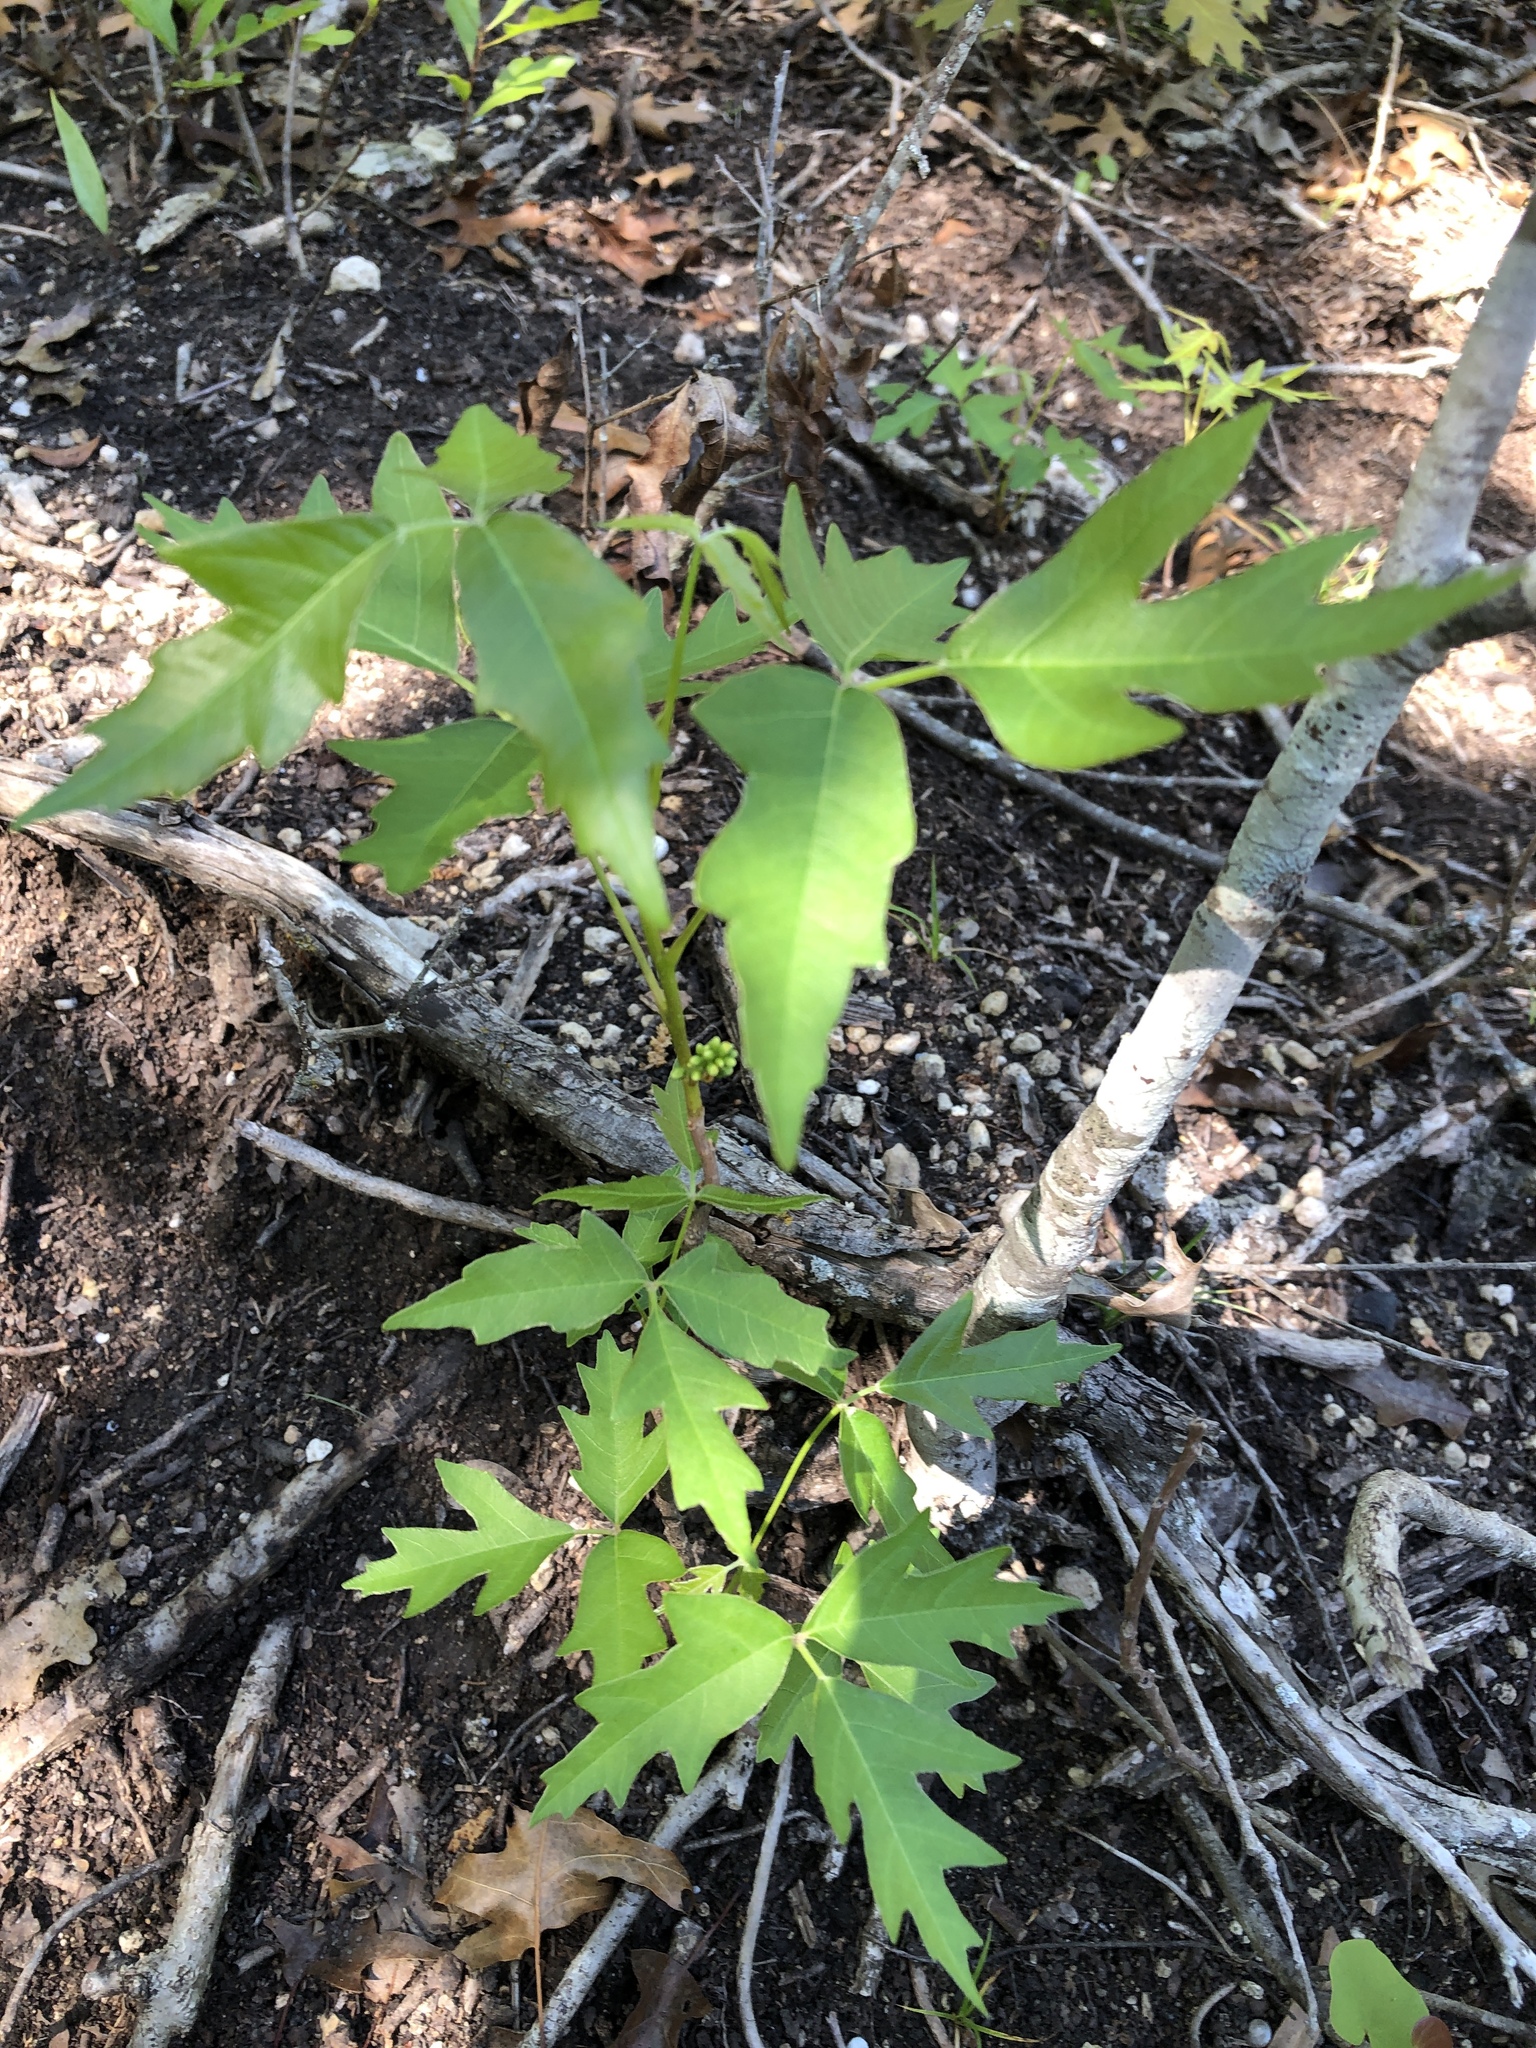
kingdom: Plantae
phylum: Tracheophyta
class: Magnoliopsida
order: Sapindales
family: Anacardiaceae
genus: Toxicodendron
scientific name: Toxicodendron radicans
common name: Poison ivy
